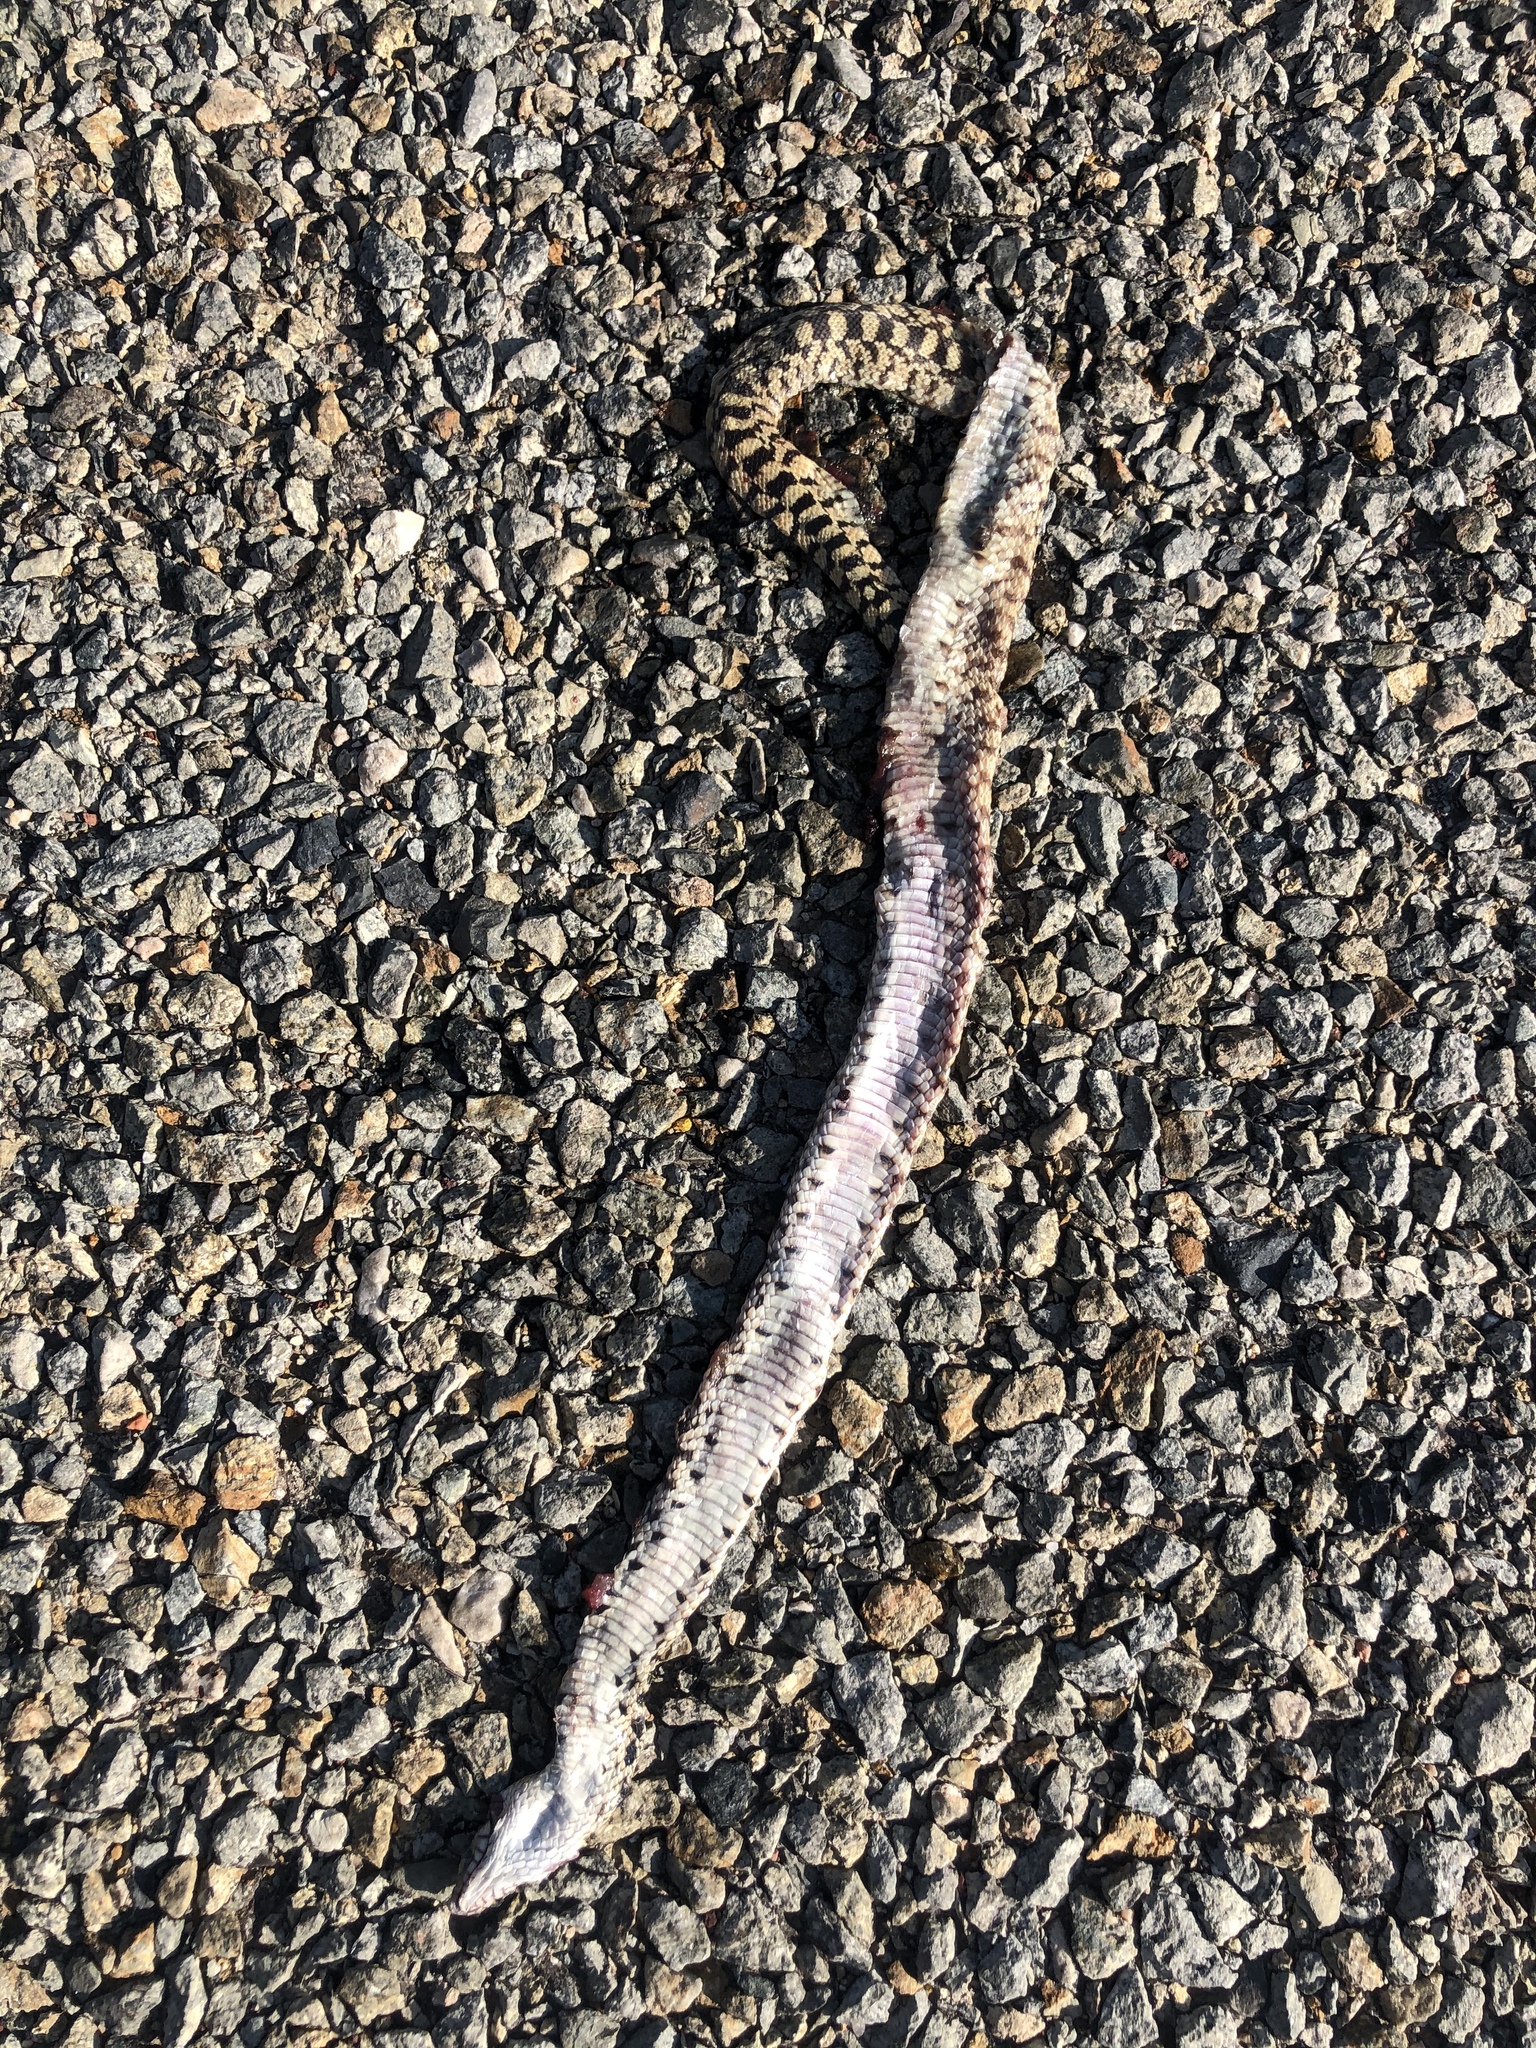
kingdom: Animalia
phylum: Chordata
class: Squamata
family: Colubridae
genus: Pituophis
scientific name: Pituophis catenifer
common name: Gopher snake
